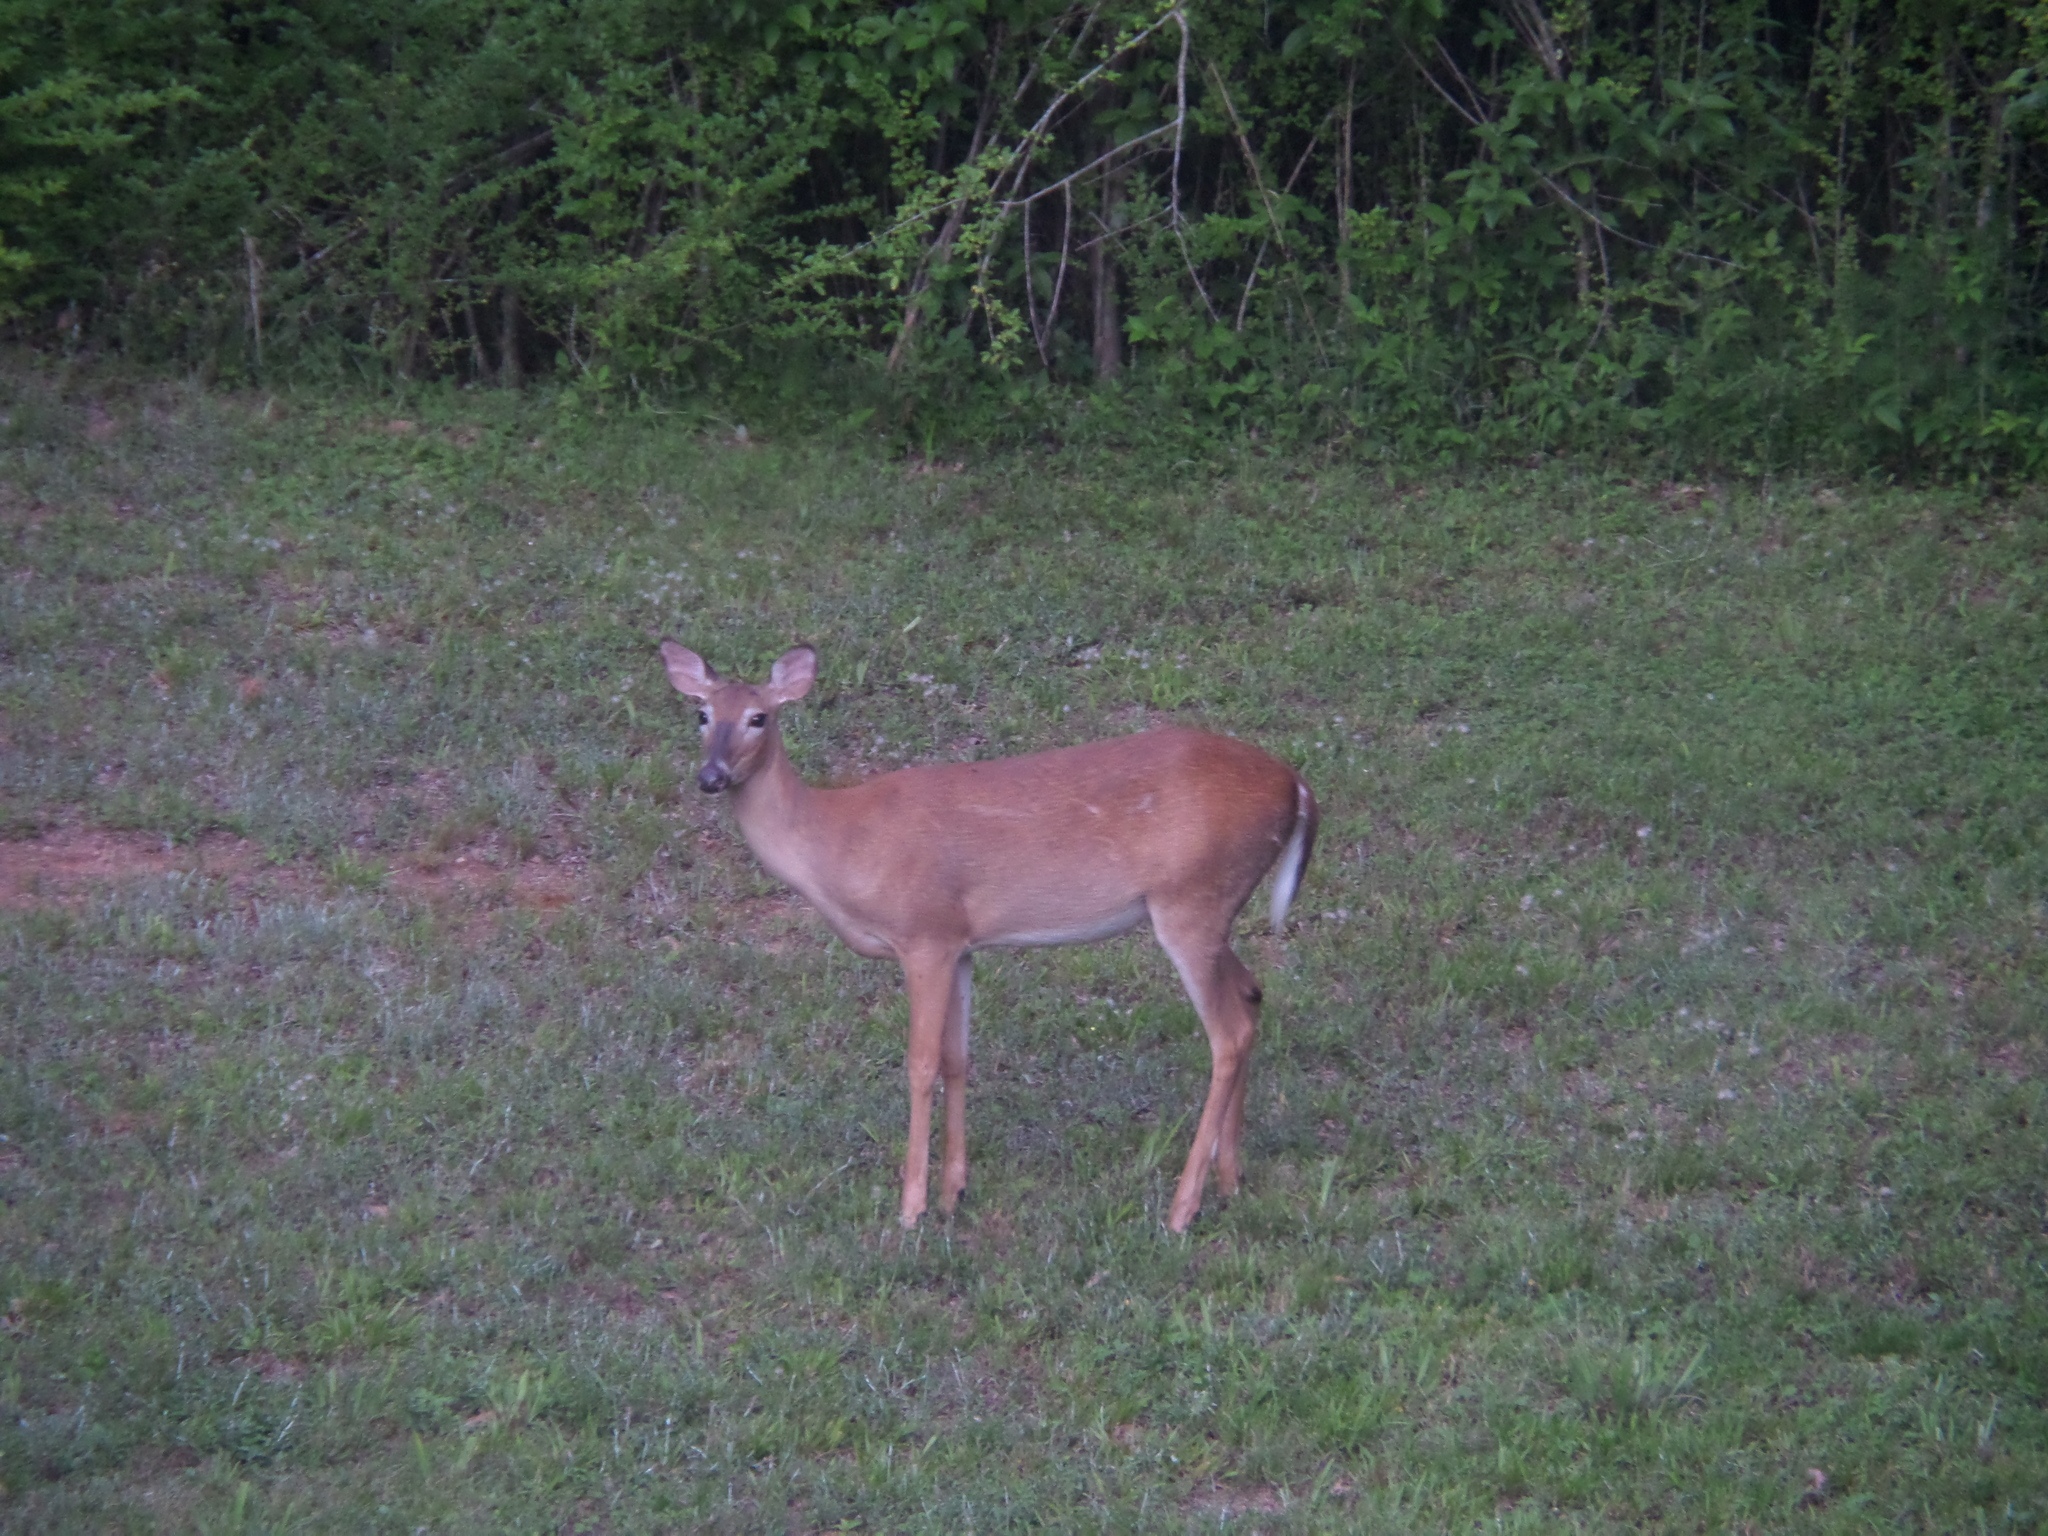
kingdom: Animalia
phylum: Chordata
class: Mammalia
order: Artiodactyla
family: Cervidae
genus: Odocoileus
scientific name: Odocoileus virginianus
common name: White-tailed deer
